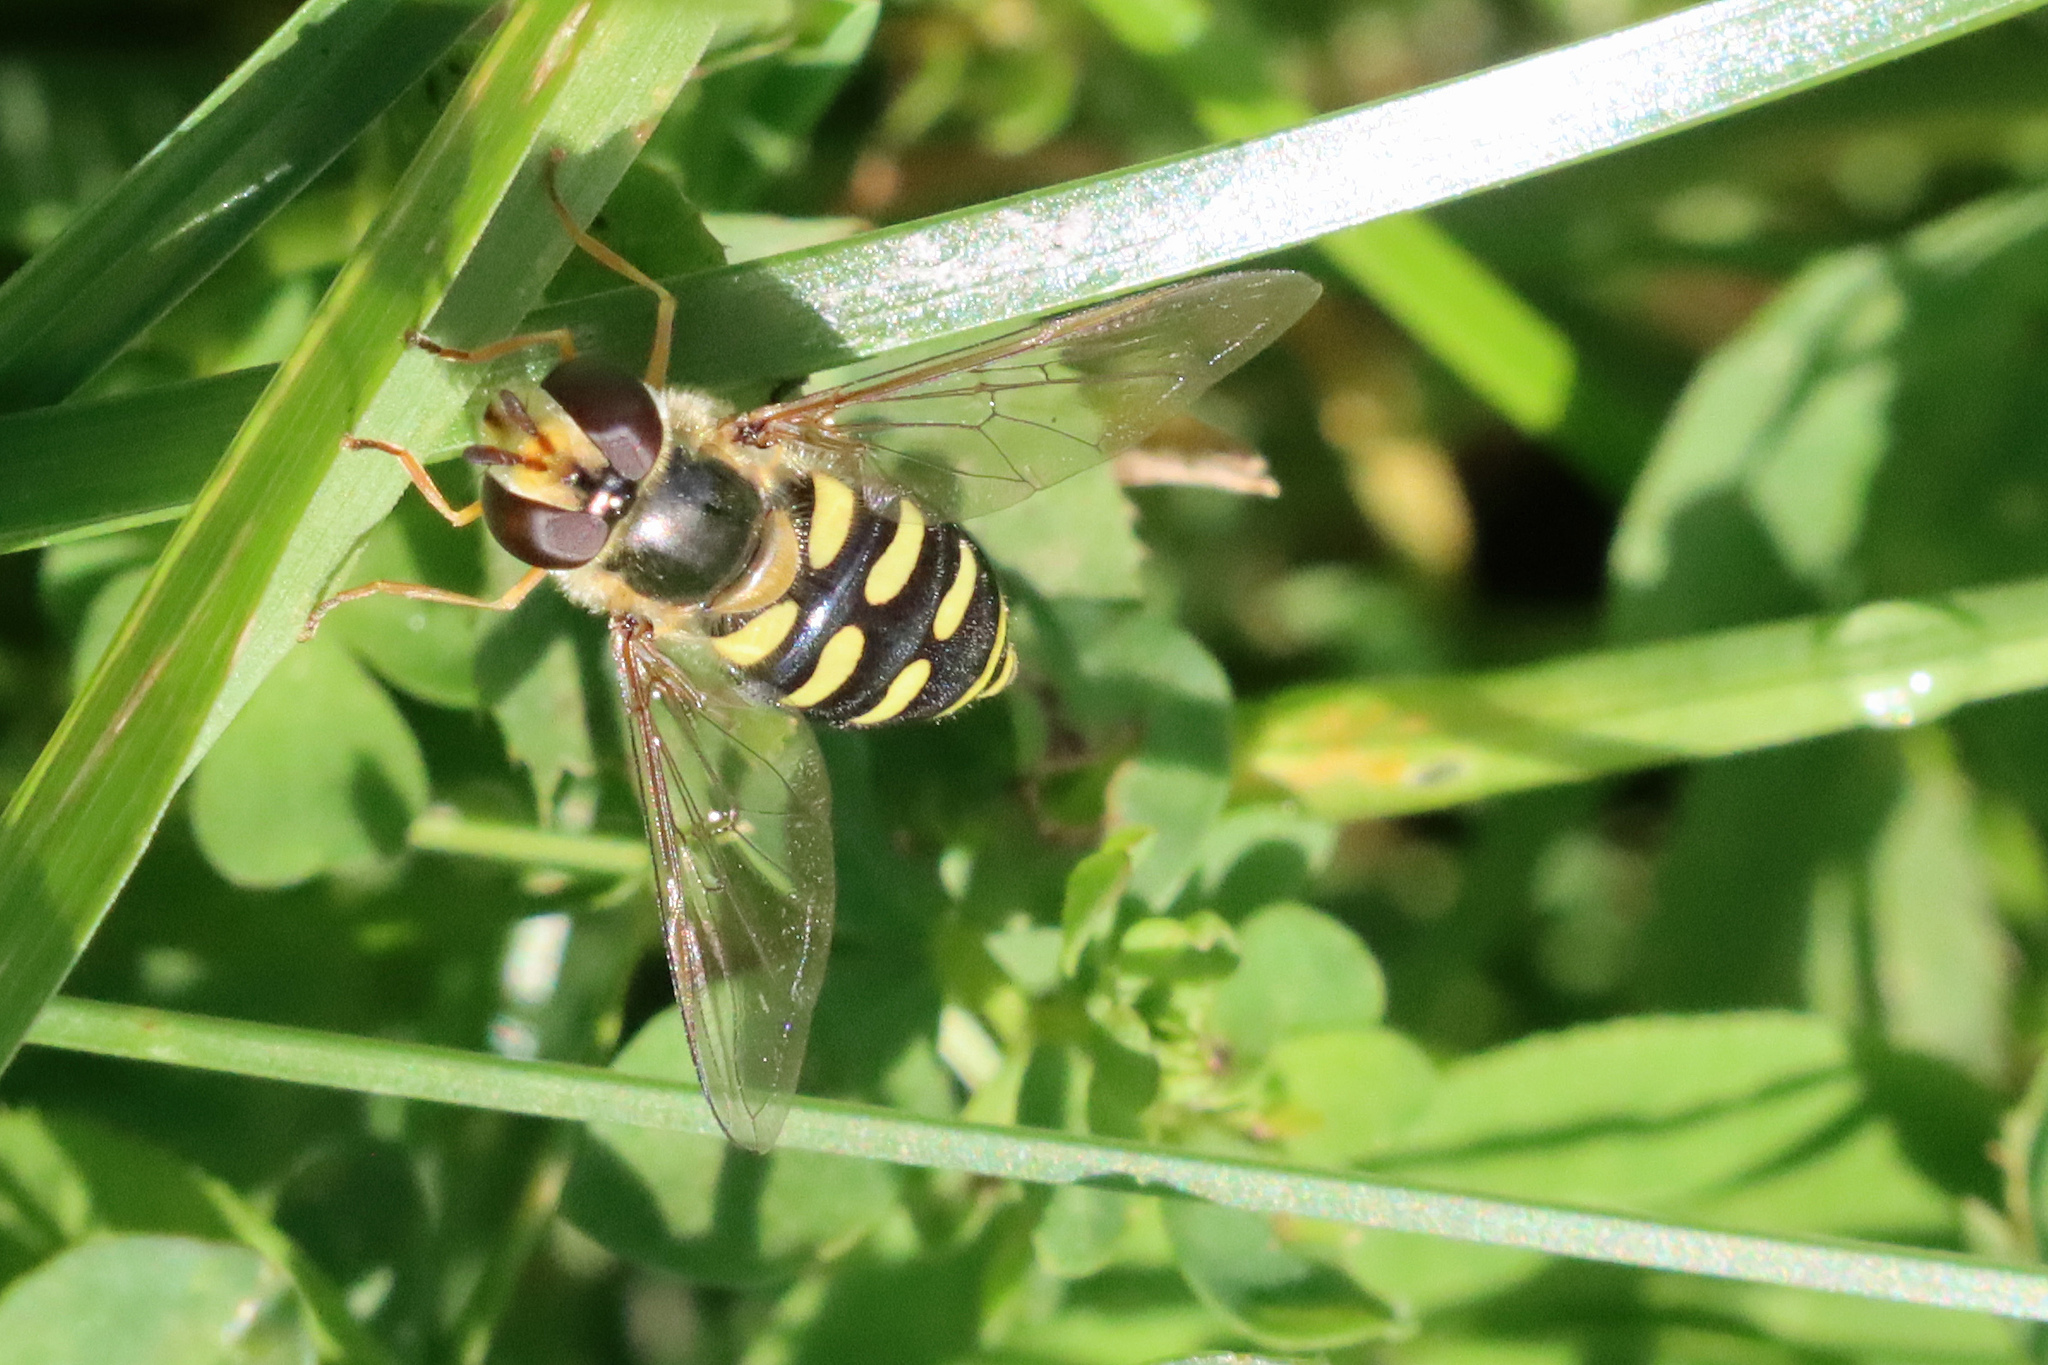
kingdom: Animalia
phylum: Arthropoda
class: Insecta
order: Diptera
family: Syrphidae
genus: Eupeodes
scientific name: Eupeodes luniger
